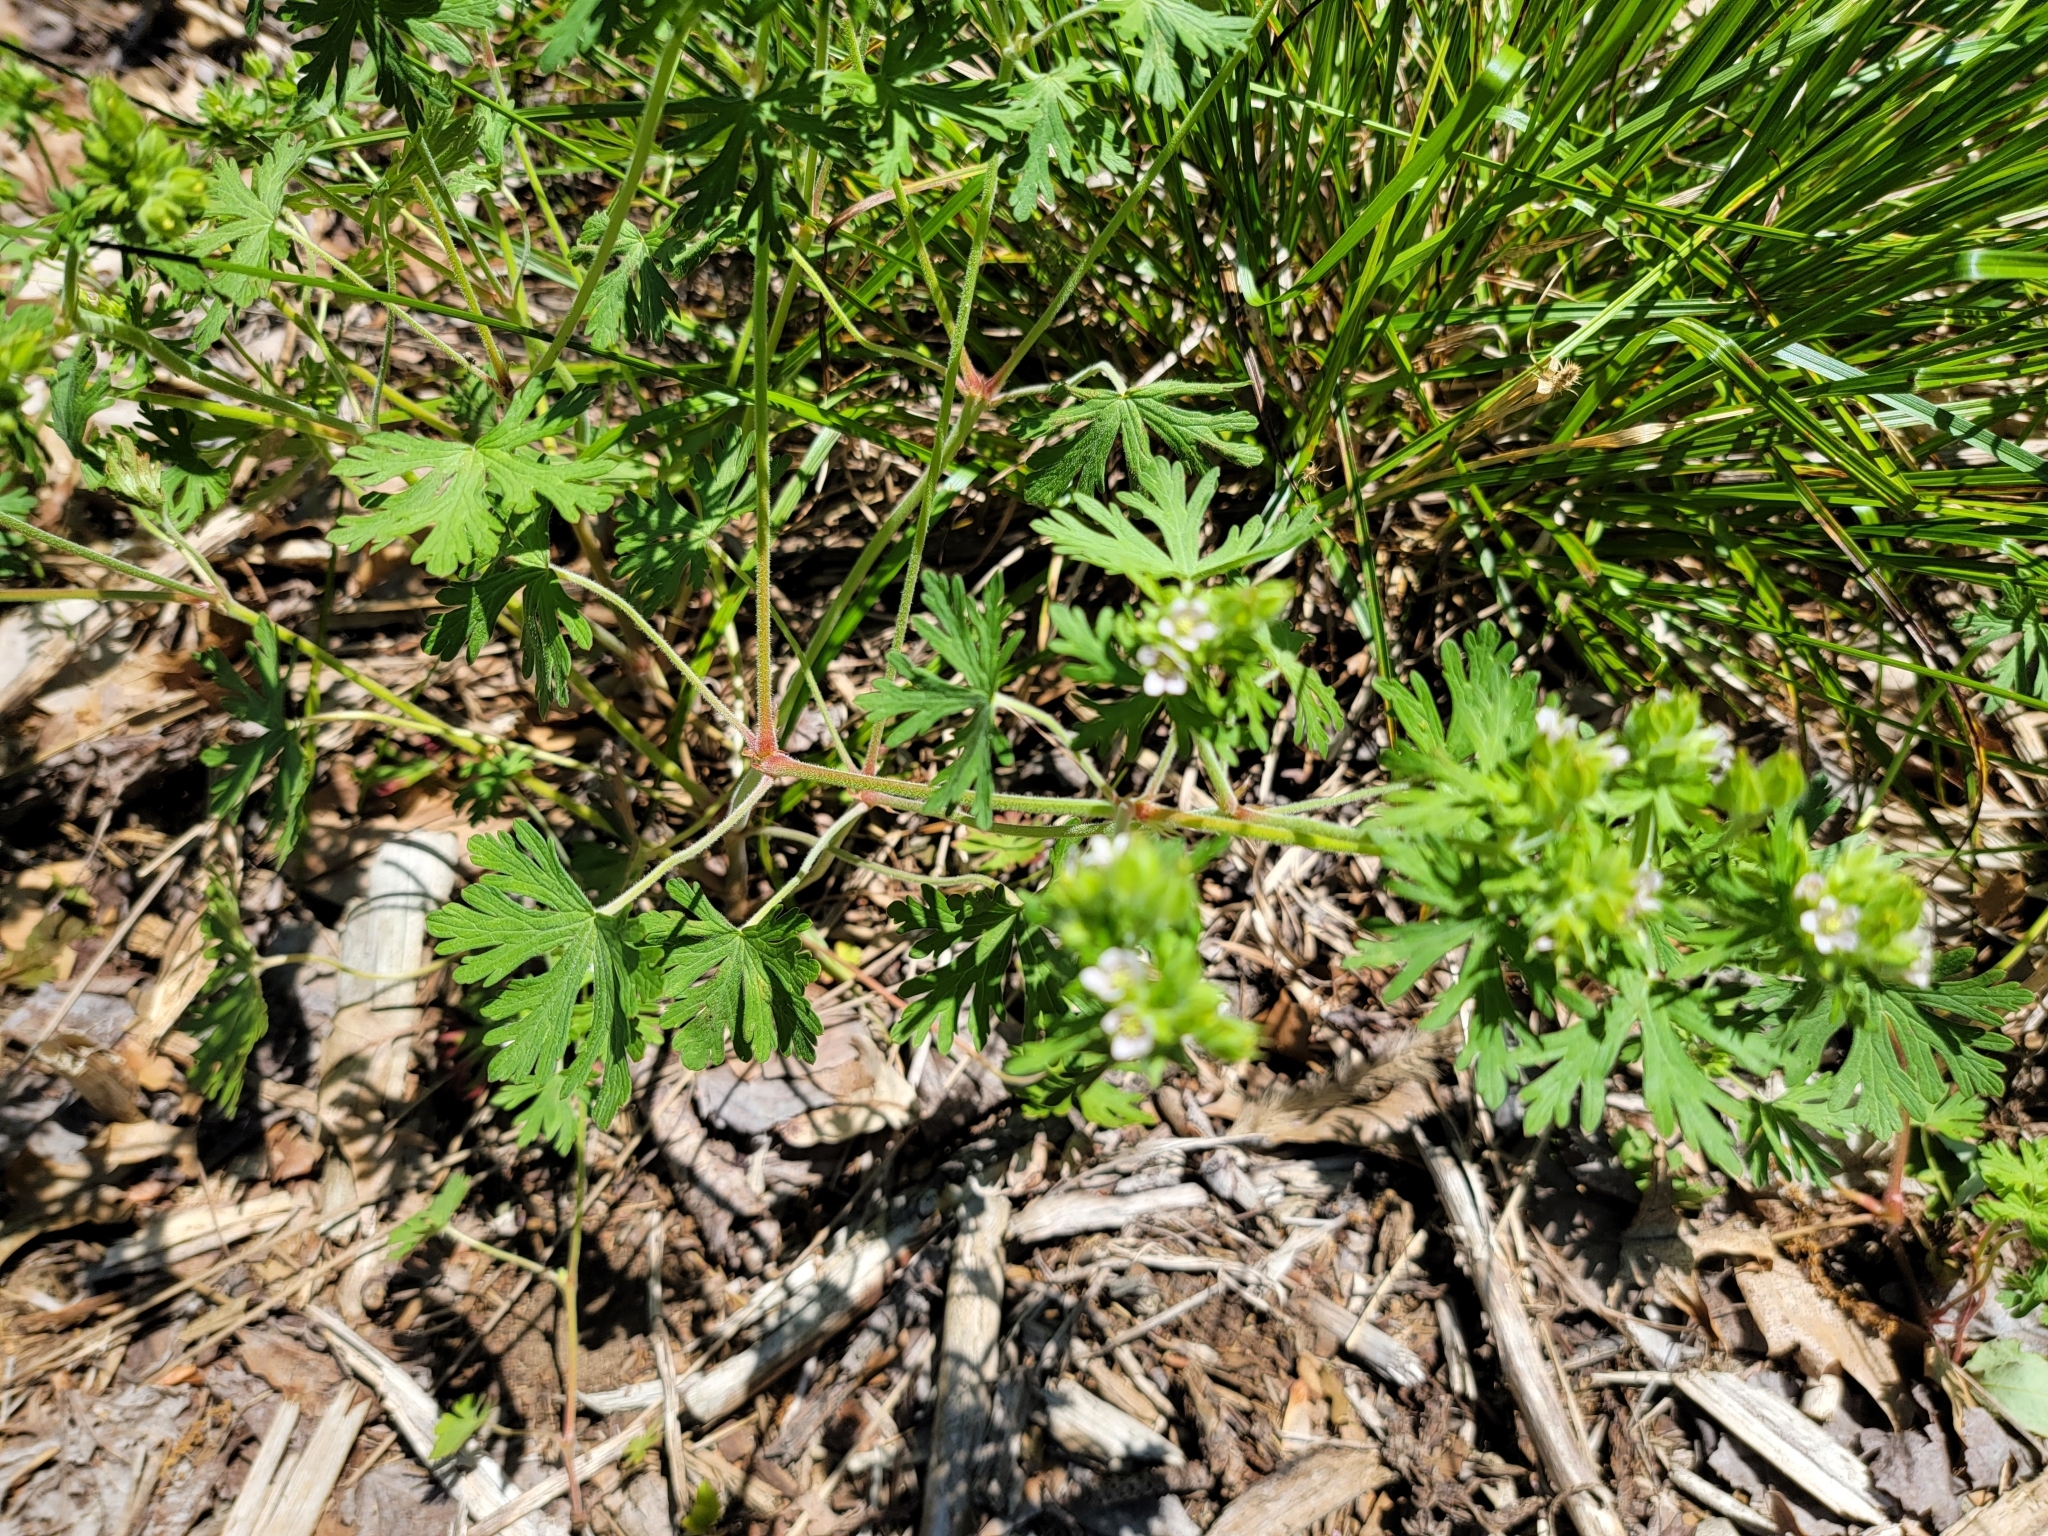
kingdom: Plantae
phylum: Tracheophyta
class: Magnoliopsida
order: Geraniales
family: Geraniaceae
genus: Geranium
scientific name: Geranium carolinianum
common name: Carolina crane's-bill
